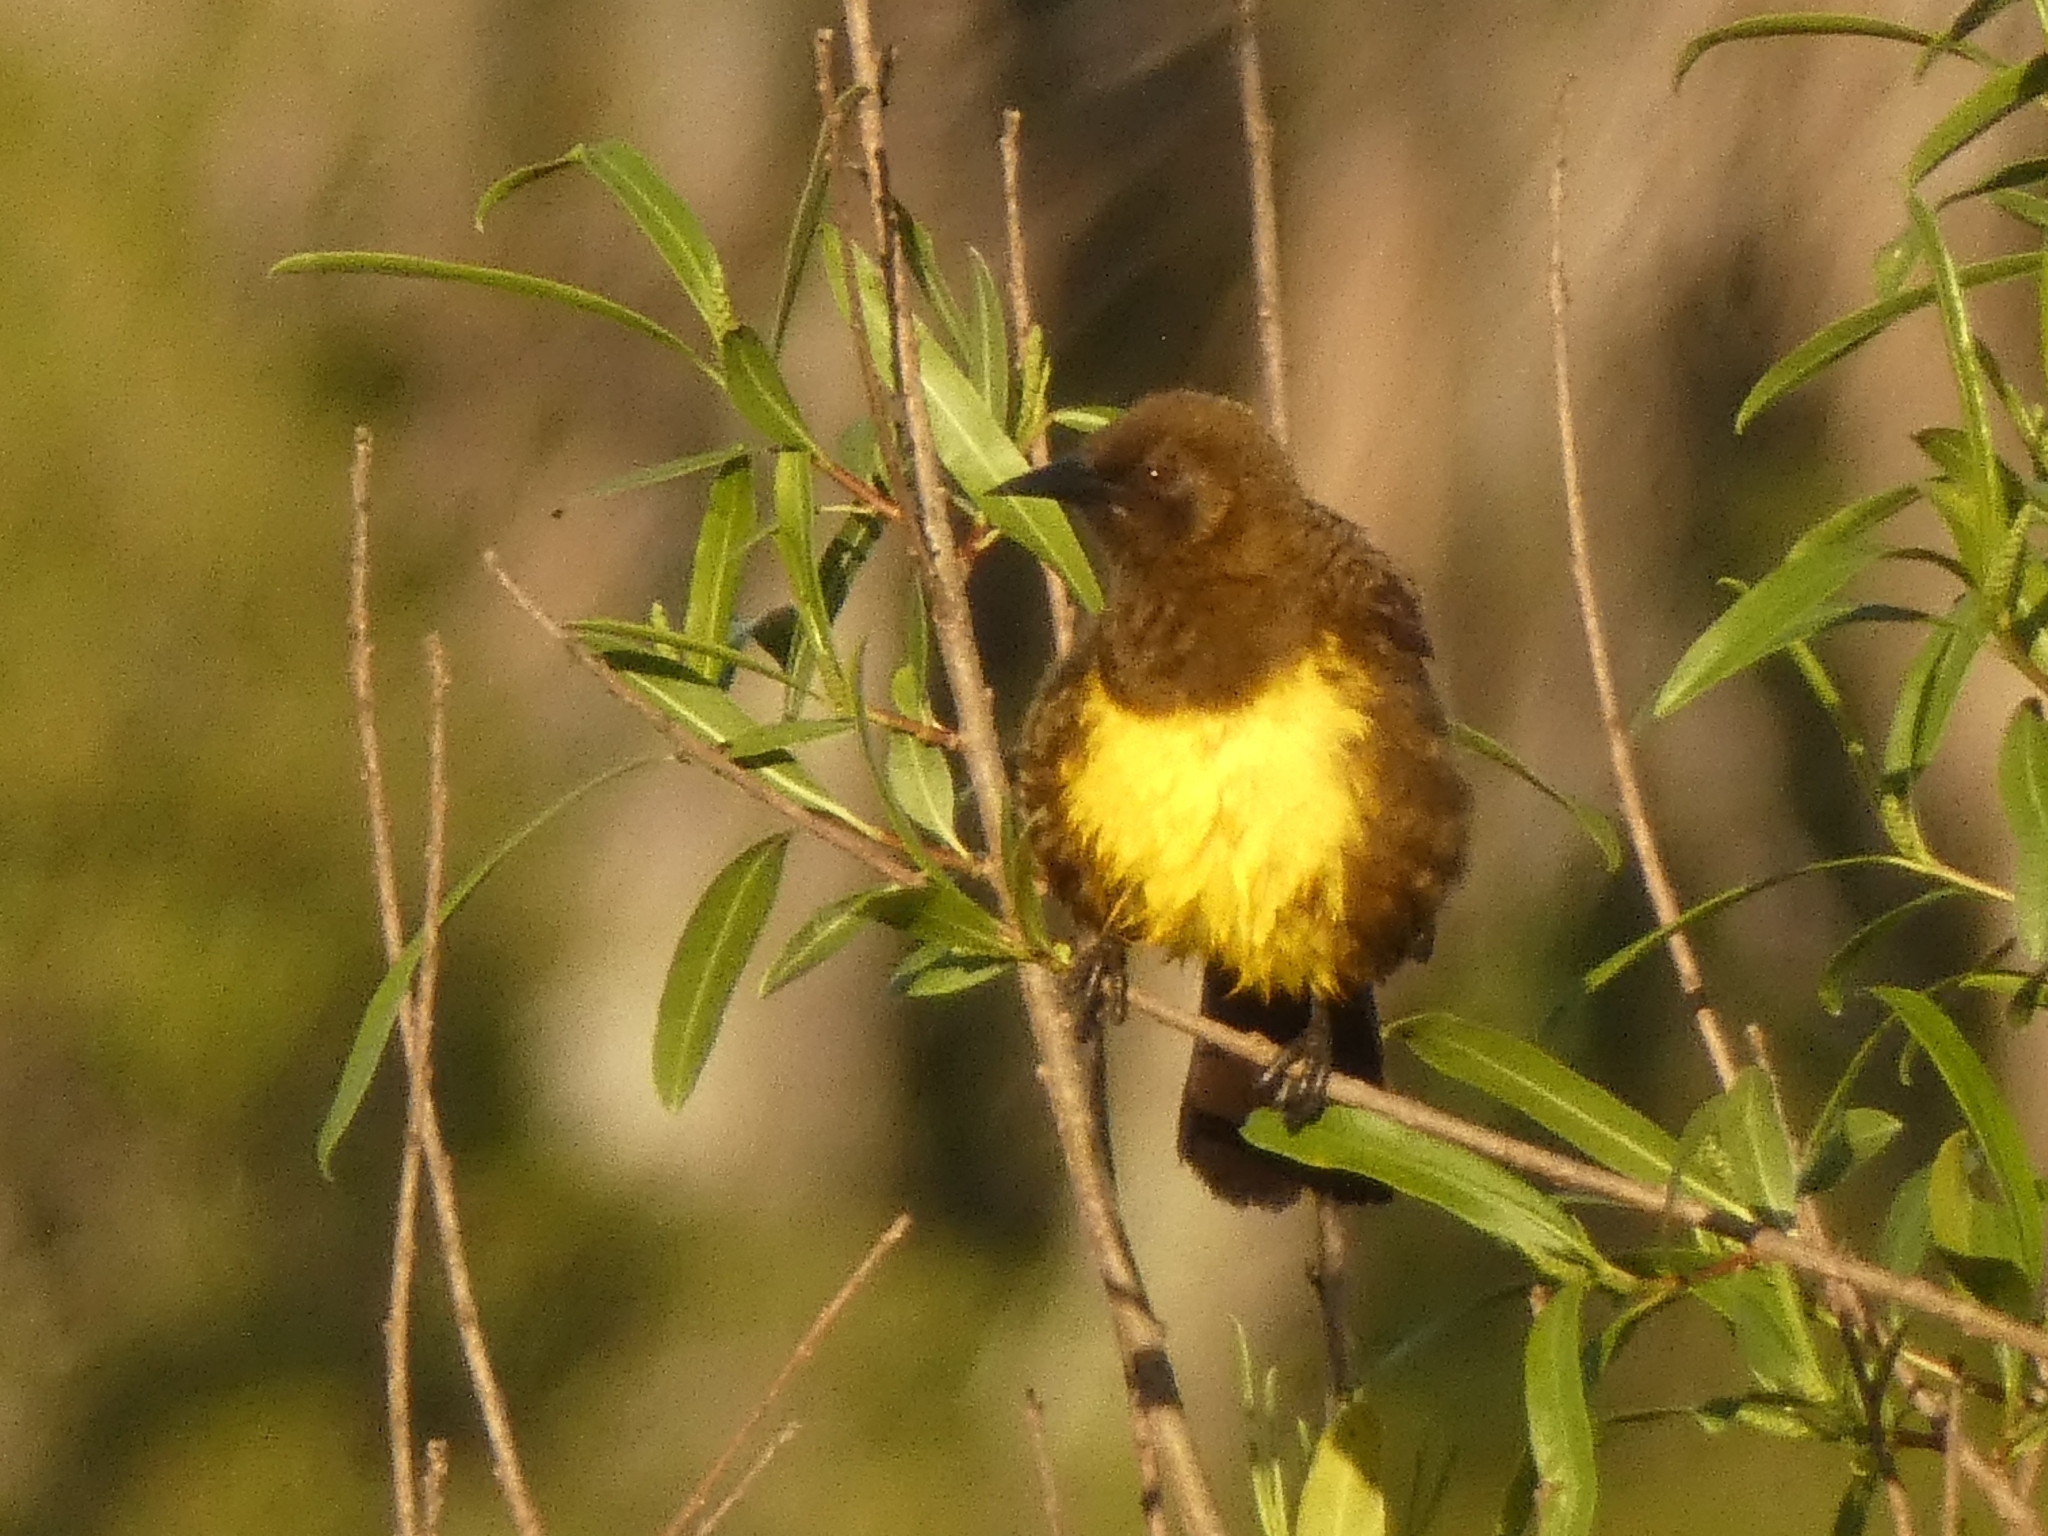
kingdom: Animalia
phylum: Chordata
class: Aves
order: Passeriformes
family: Icteridae
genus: Pseudoleistes
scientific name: Pseudoleistes virescens
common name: Brown-and-yellow marshbird
